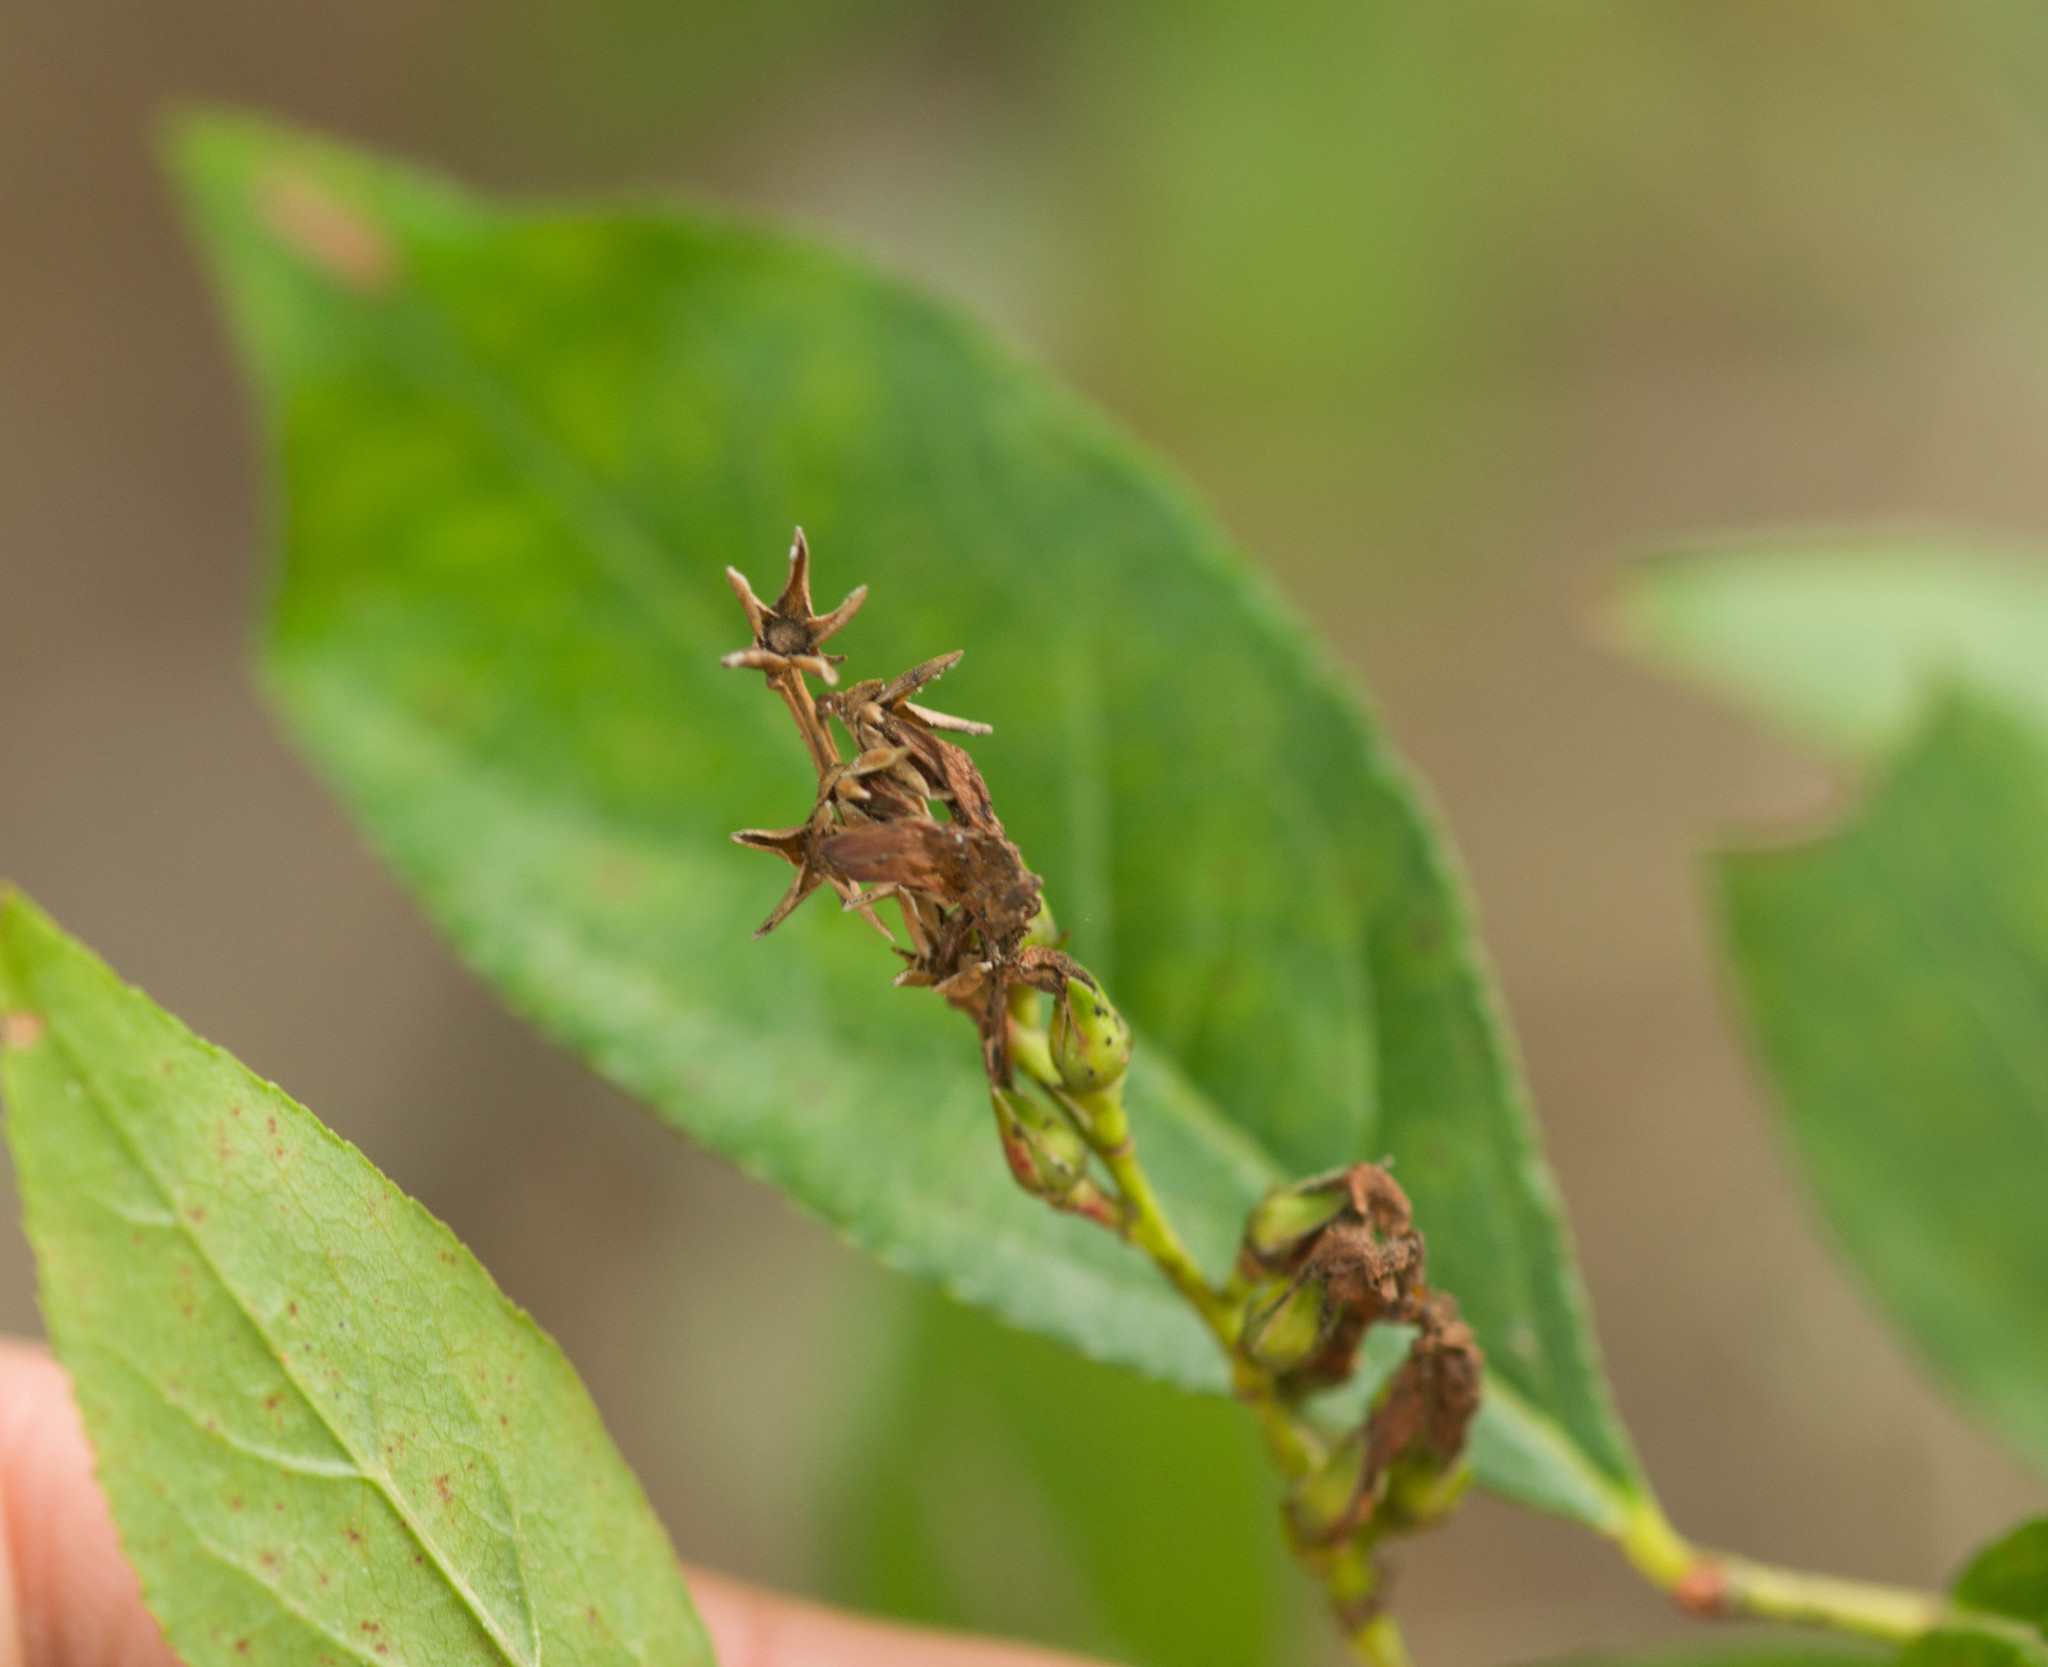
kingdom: Plantae
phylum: Tracheophyta
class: Magnoliopsida
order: Ericales
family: Ericaceae
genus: Eubotrys
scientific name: Eubotrys racemosa
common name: Fetterbush
